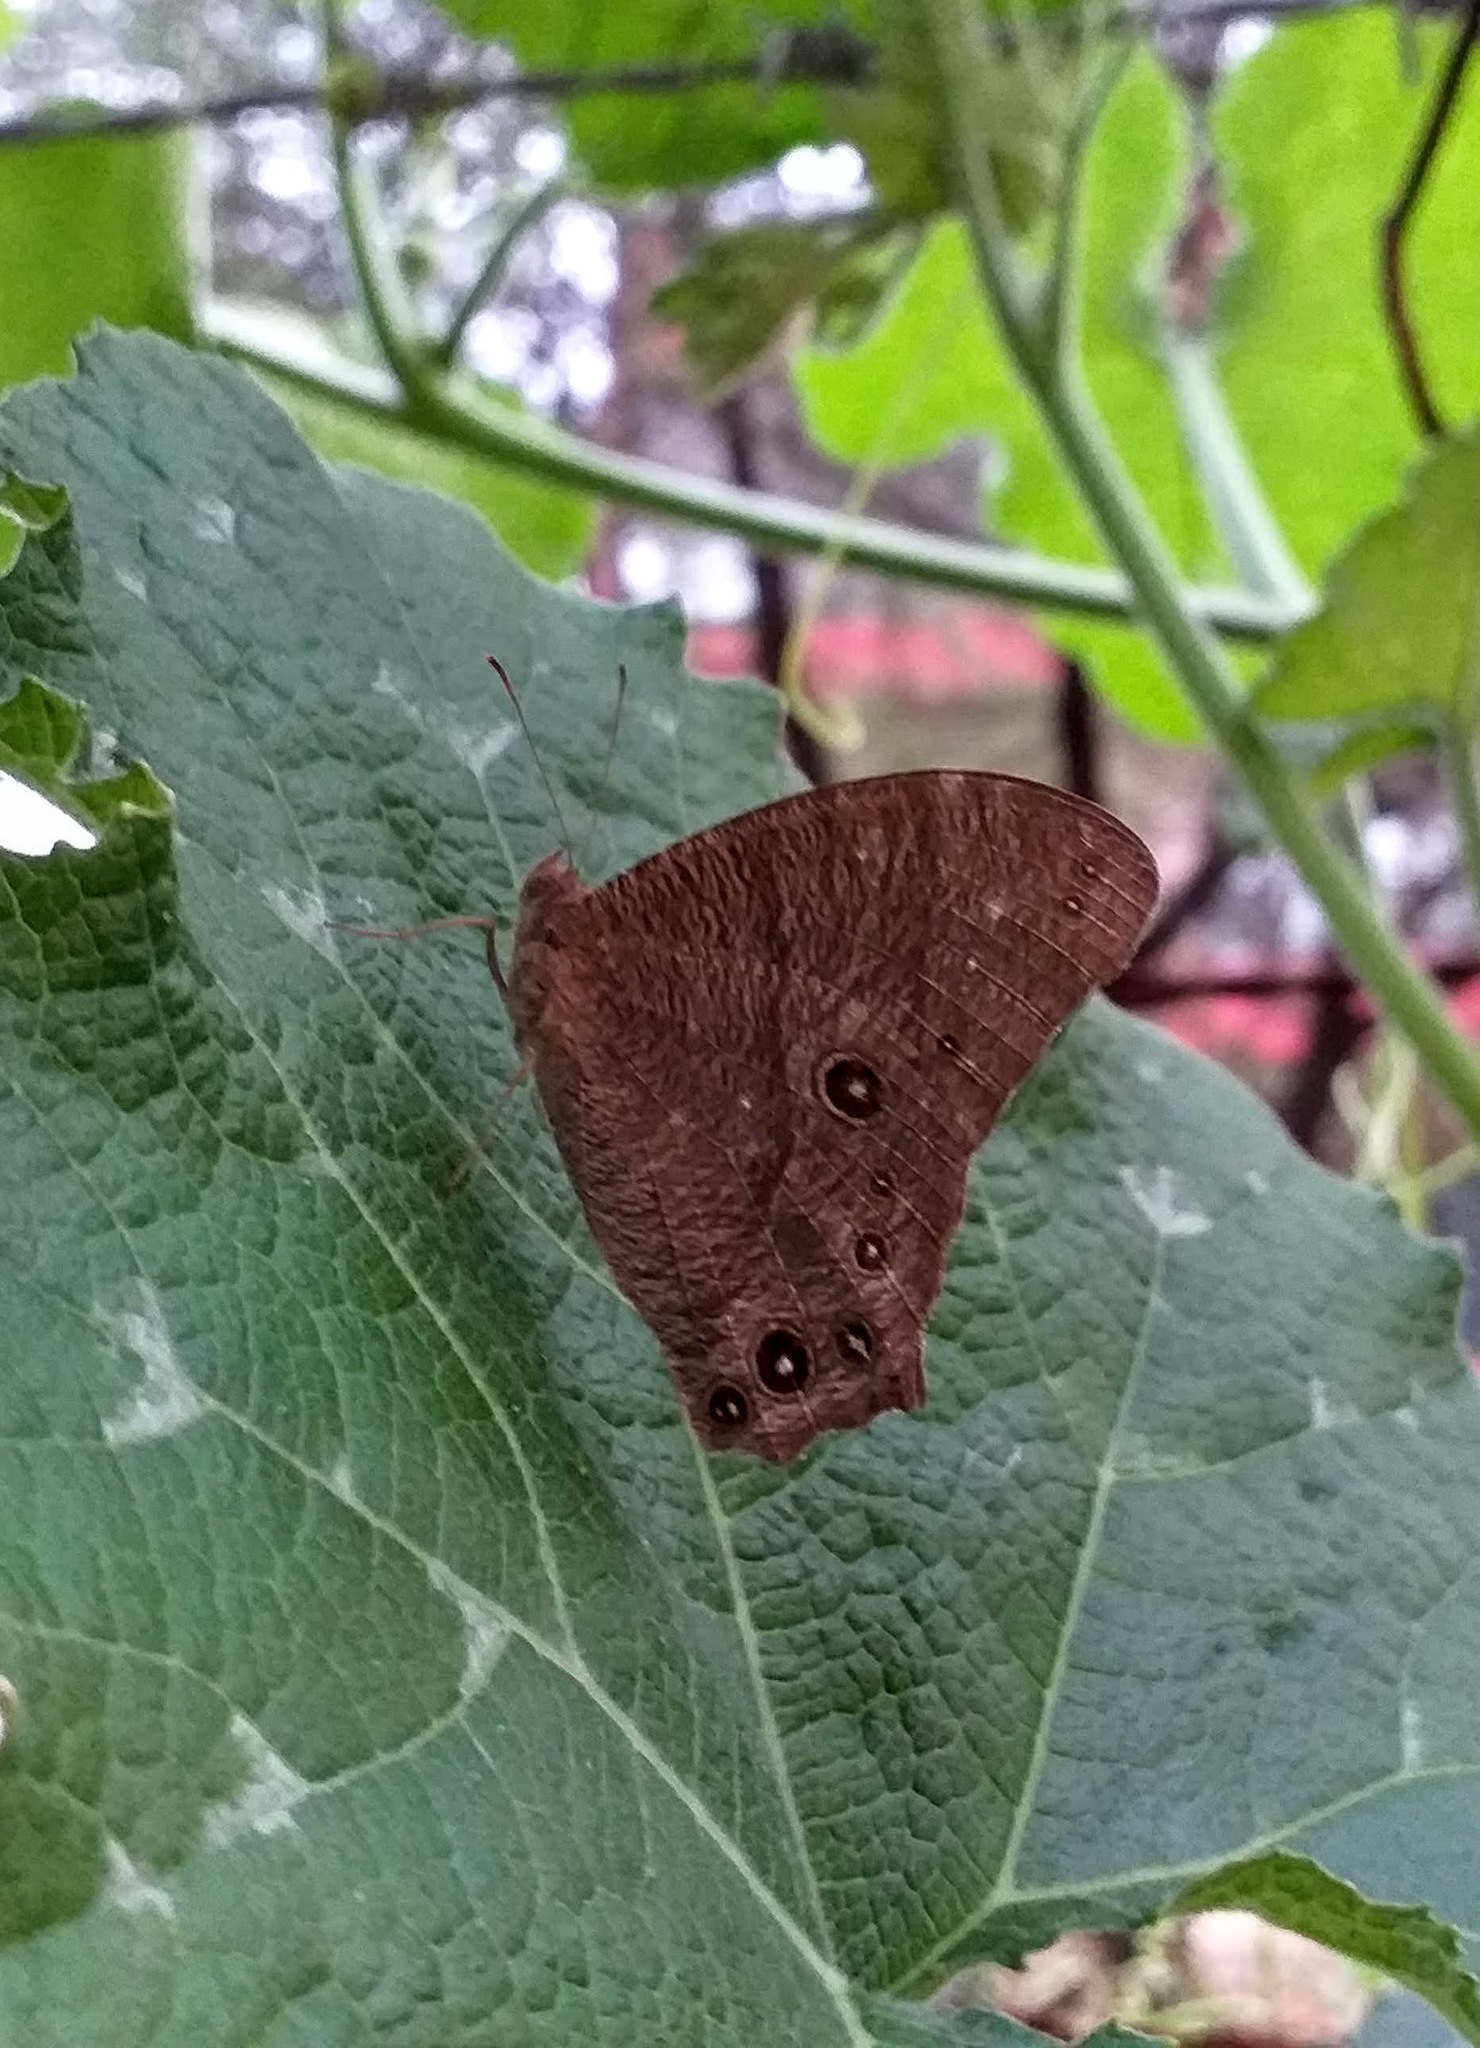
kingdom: Animalia
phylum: Arthropoda
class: Insecta
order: Lepidoptera
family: Nymphalidae
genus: Melanitis
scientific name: Melanitis leda
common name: Twilight brown
